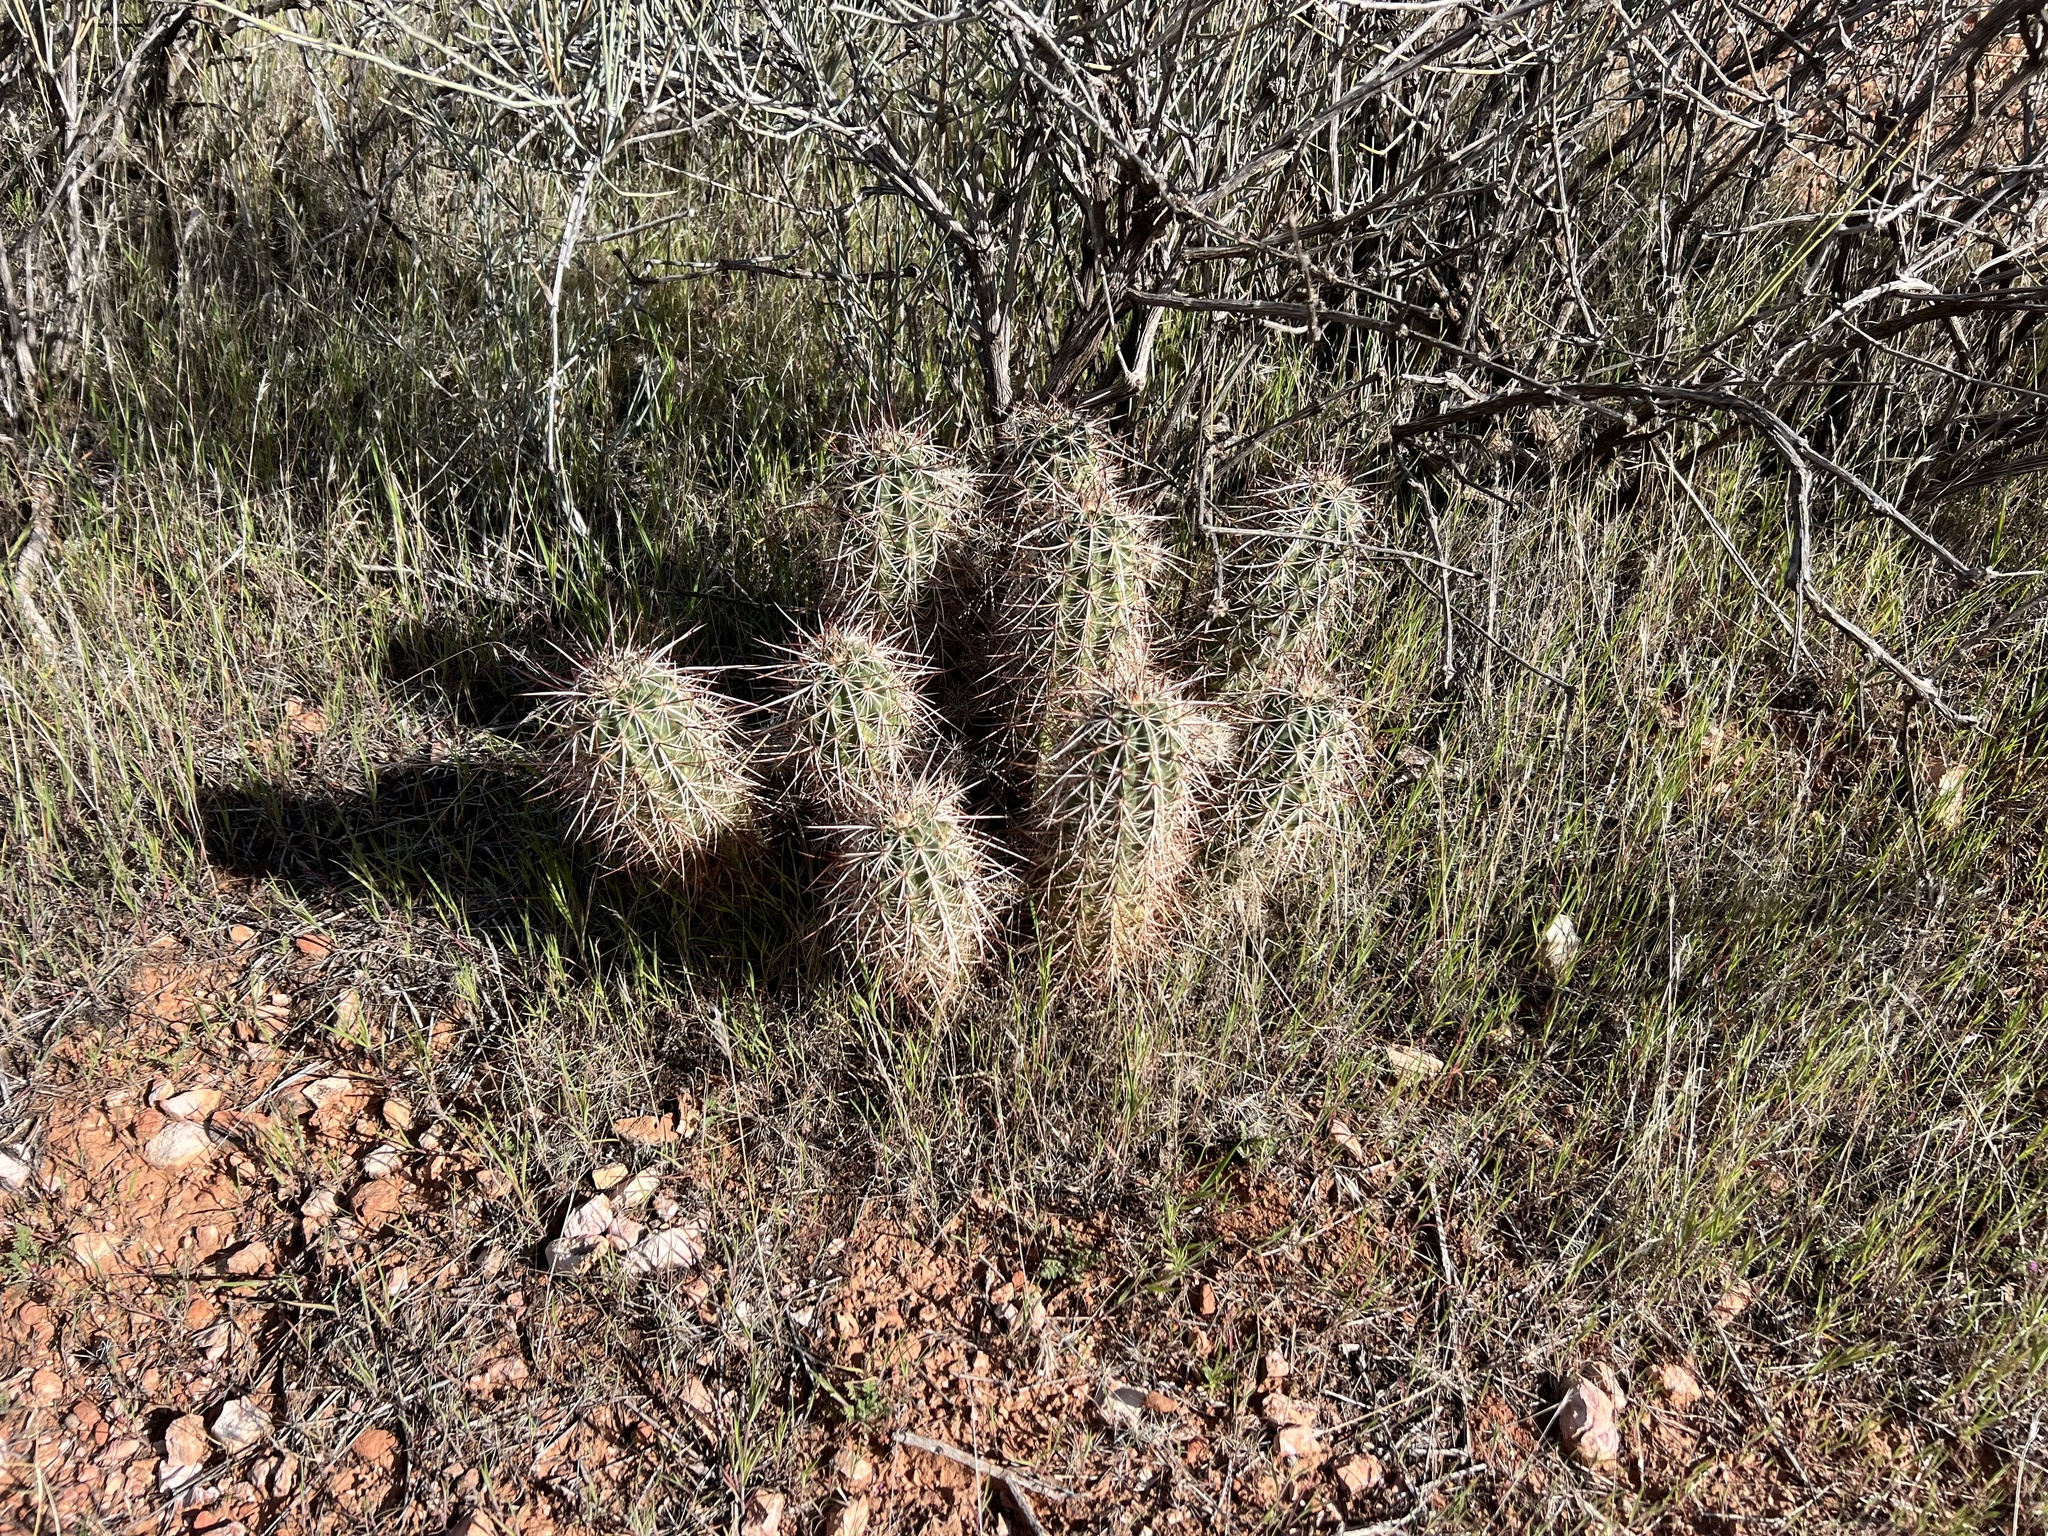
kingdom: Plantae
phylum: Tracheophyta
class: Magnoliopsida
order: Caryophyllales
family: Cactaceae
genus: Echinocereus
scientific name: Echinocereus engelmannii
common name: Engelmann's hedgehog cactus
